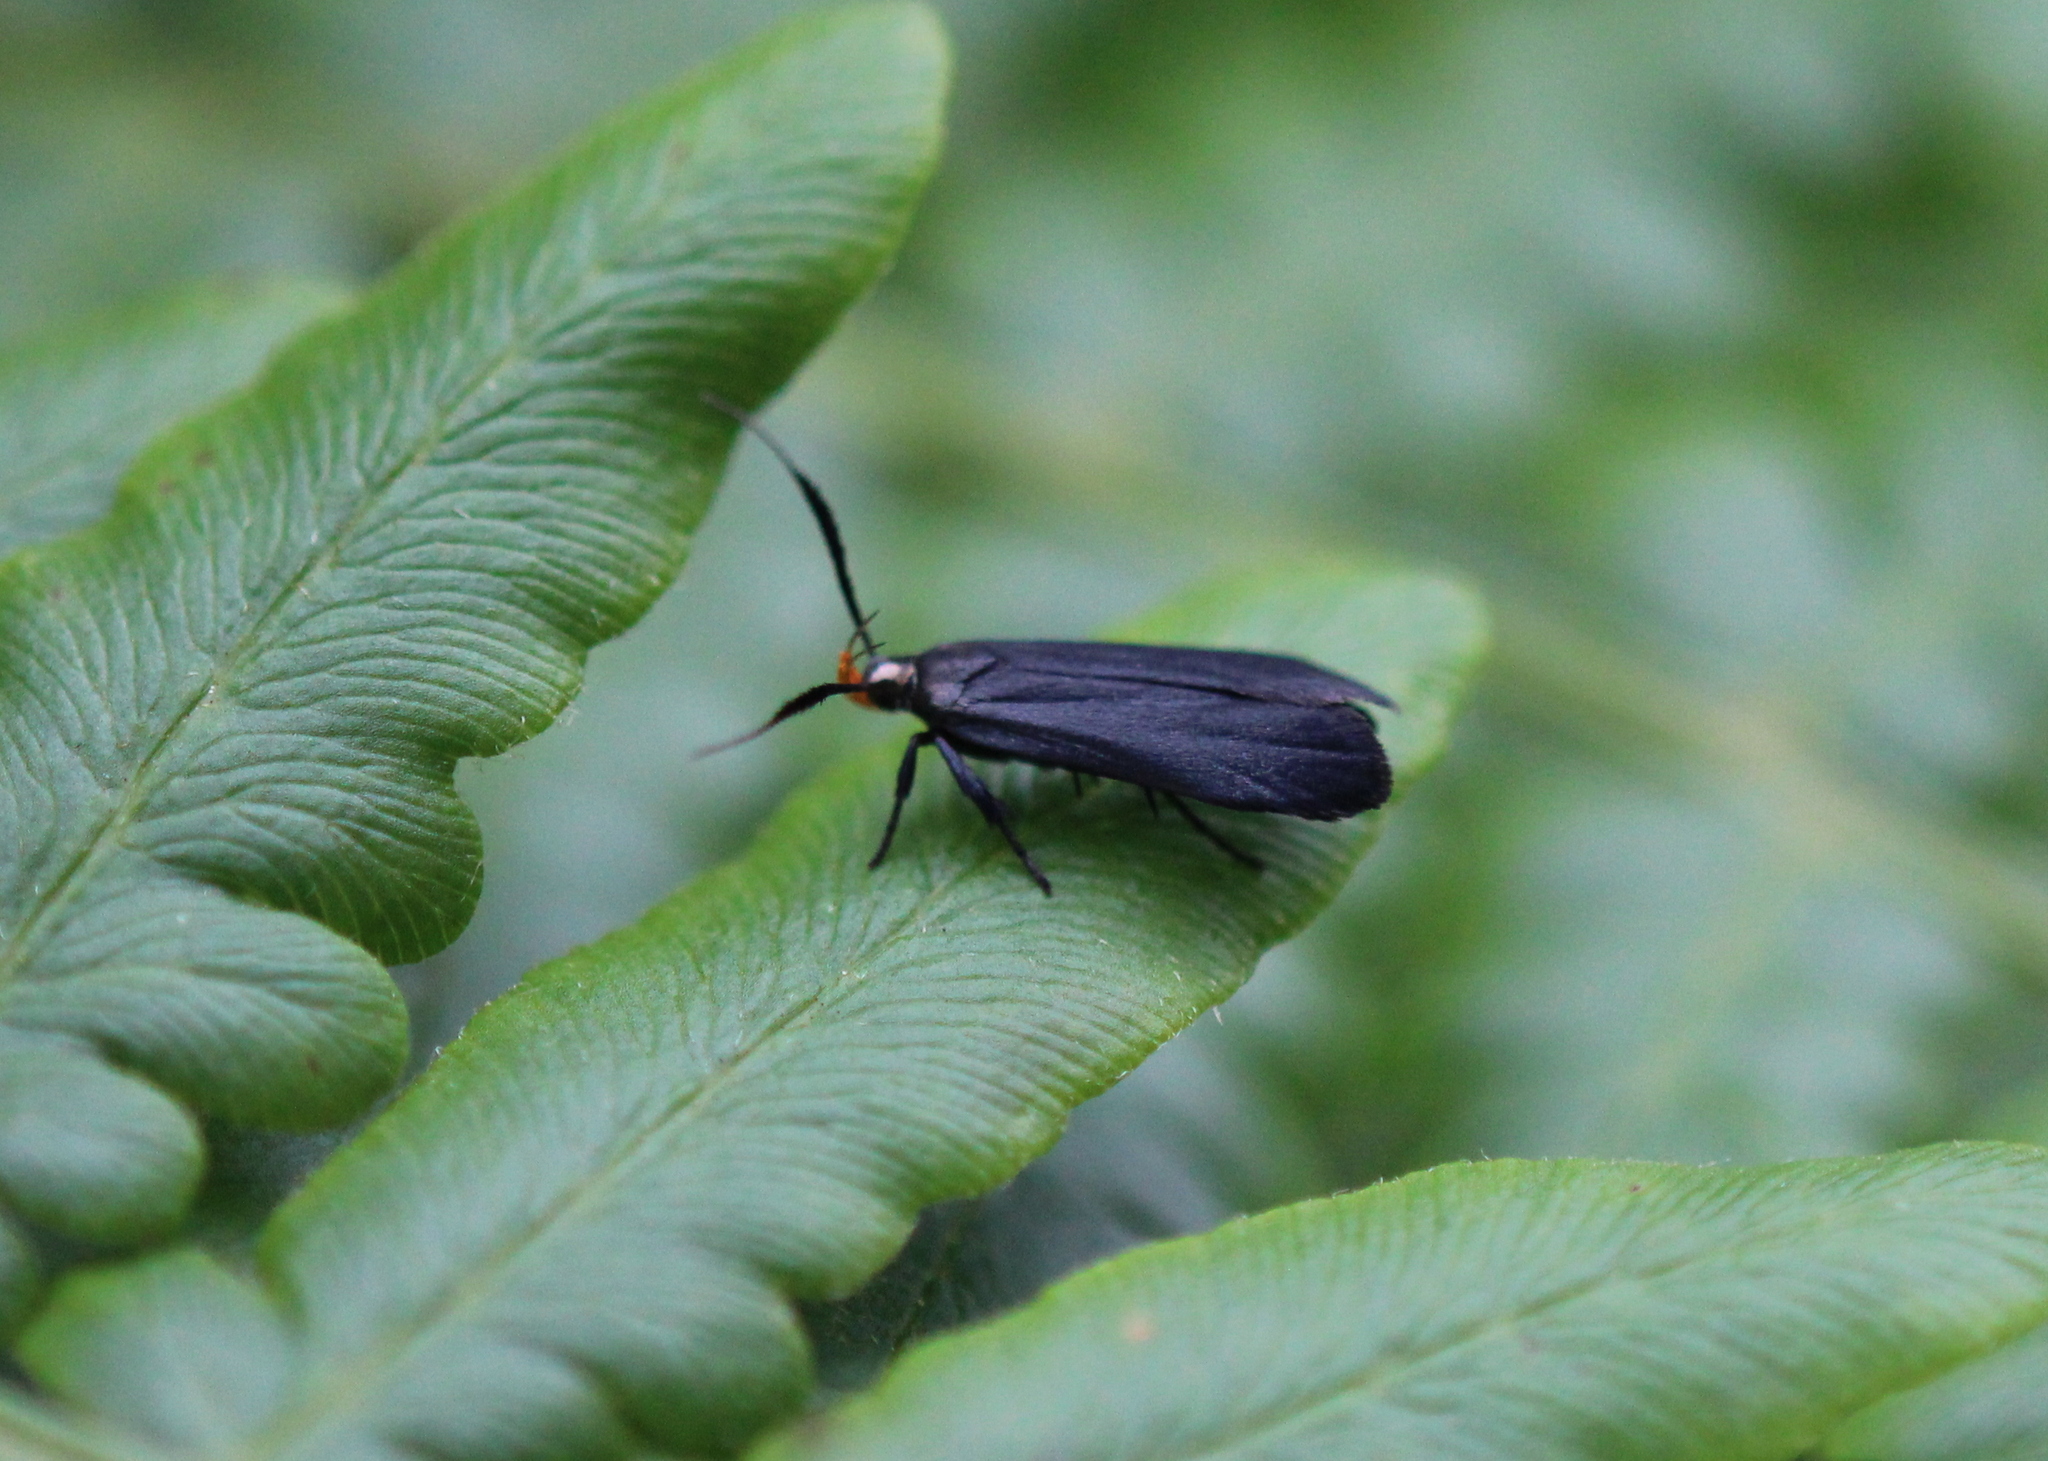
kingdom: Animalia
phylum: Arthropoda
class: Insecta
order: Lepidoptera
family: Gelechiidae
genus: Dichomeris
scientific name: Dichomeris nonstrigella
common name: Little devil moth
